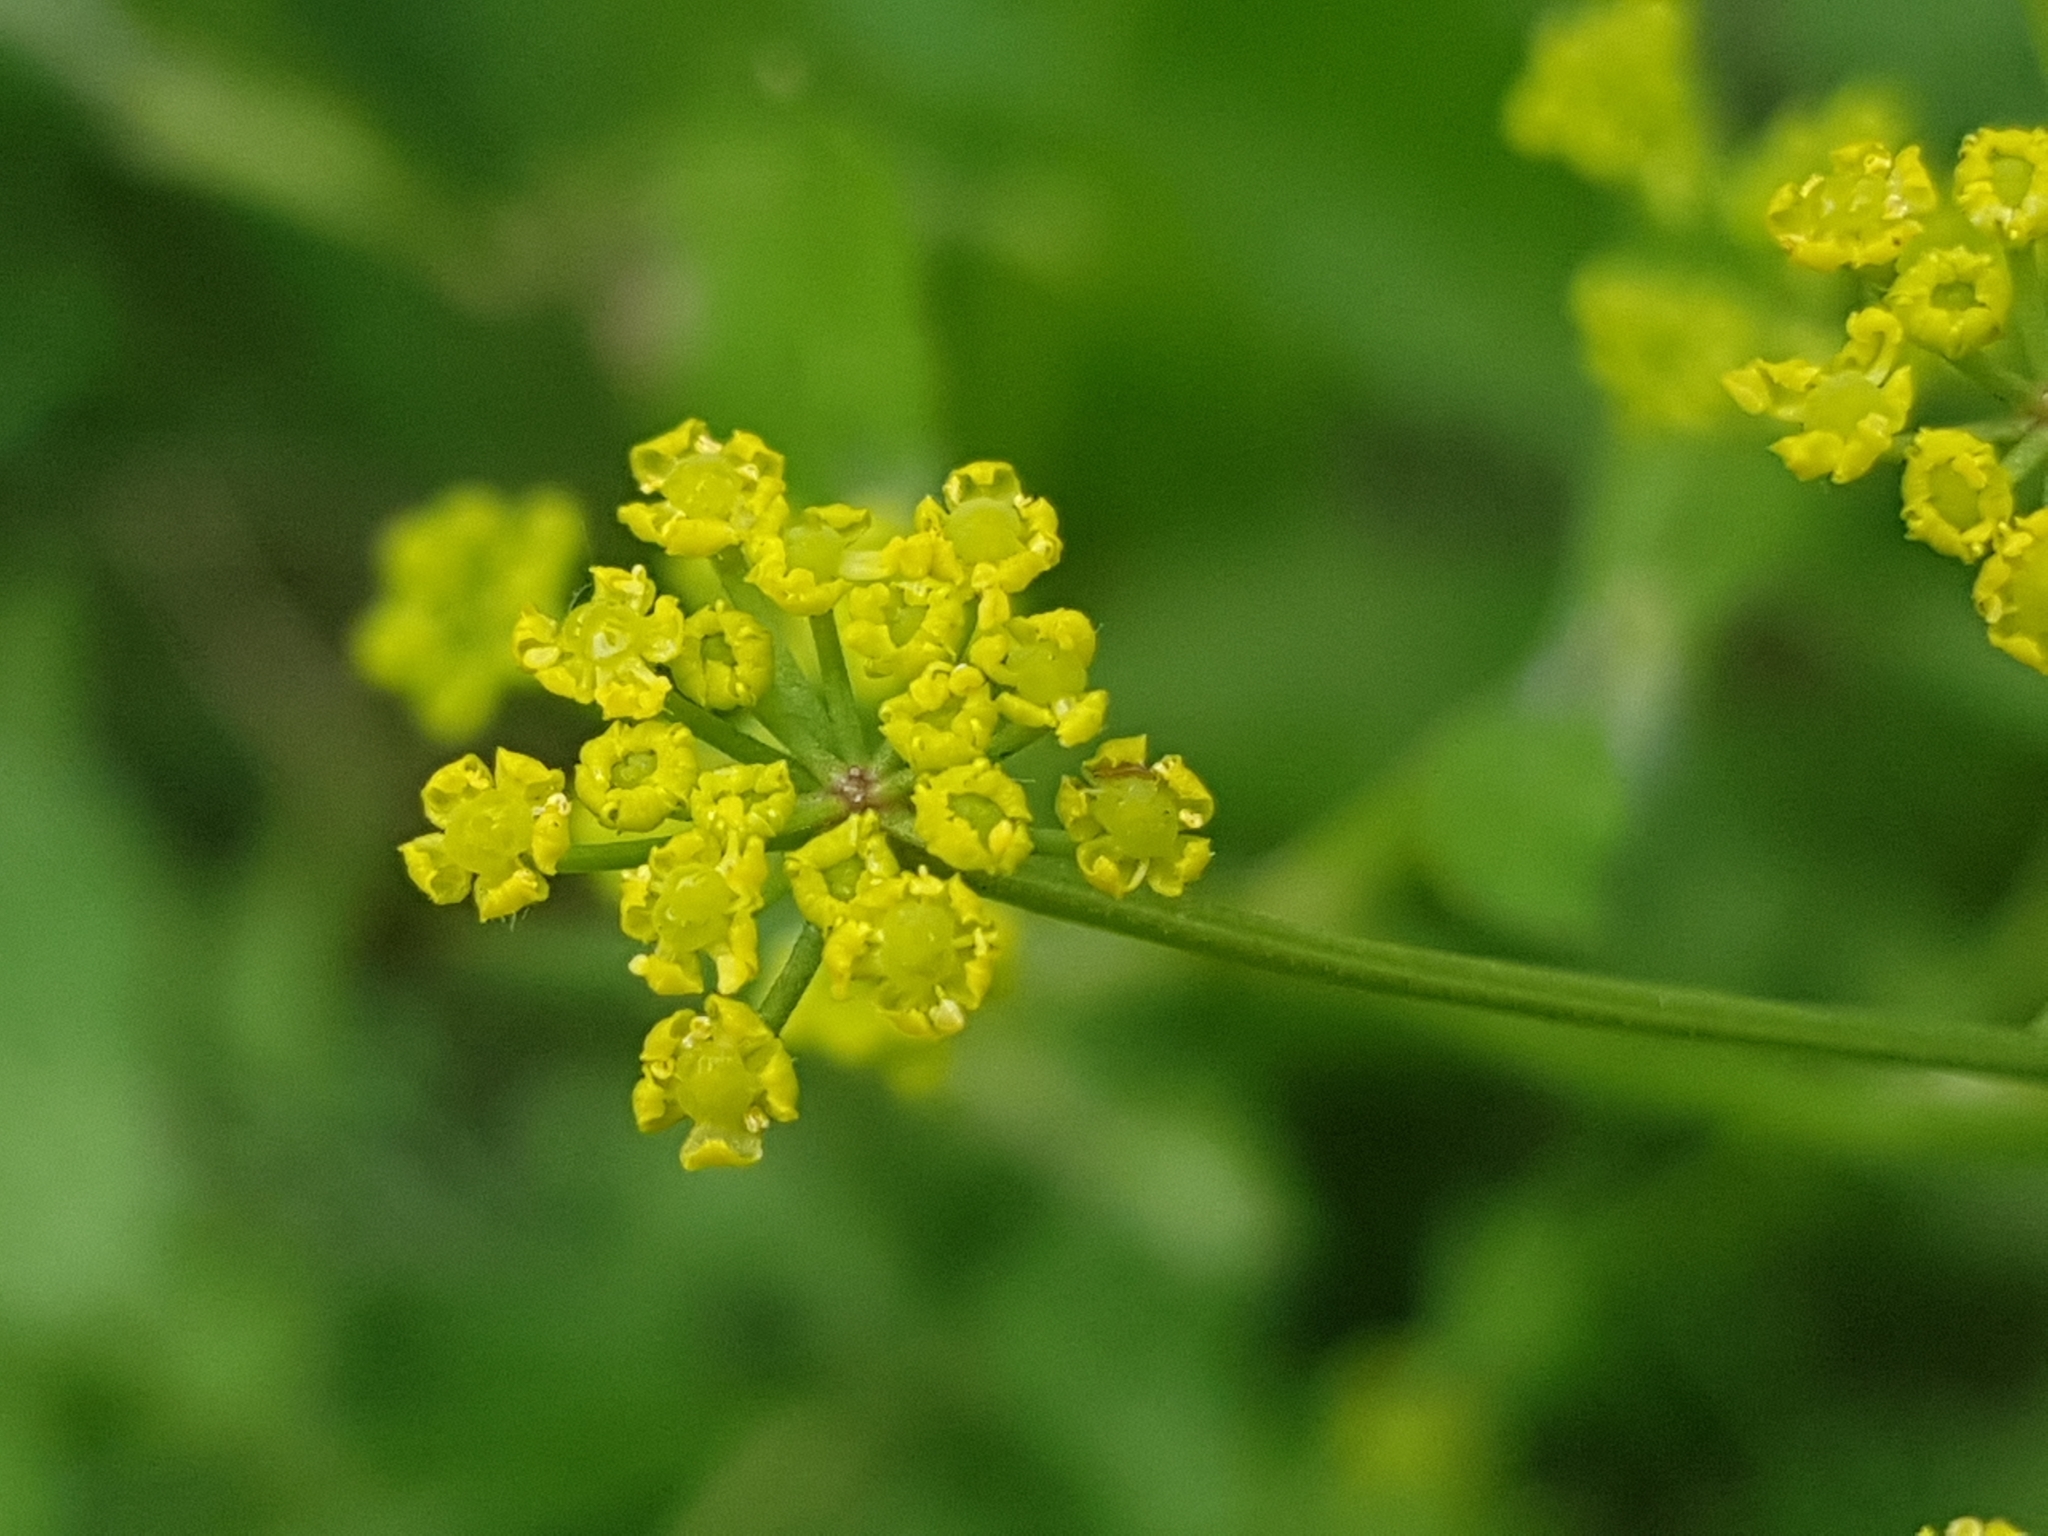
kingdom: Plantae
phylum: Tracheophyta
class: Magnoliopsida
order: Apiales
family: Apiaceae
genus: Pastinaca
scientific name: Pastinaca sativa
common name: Wild parsnip
